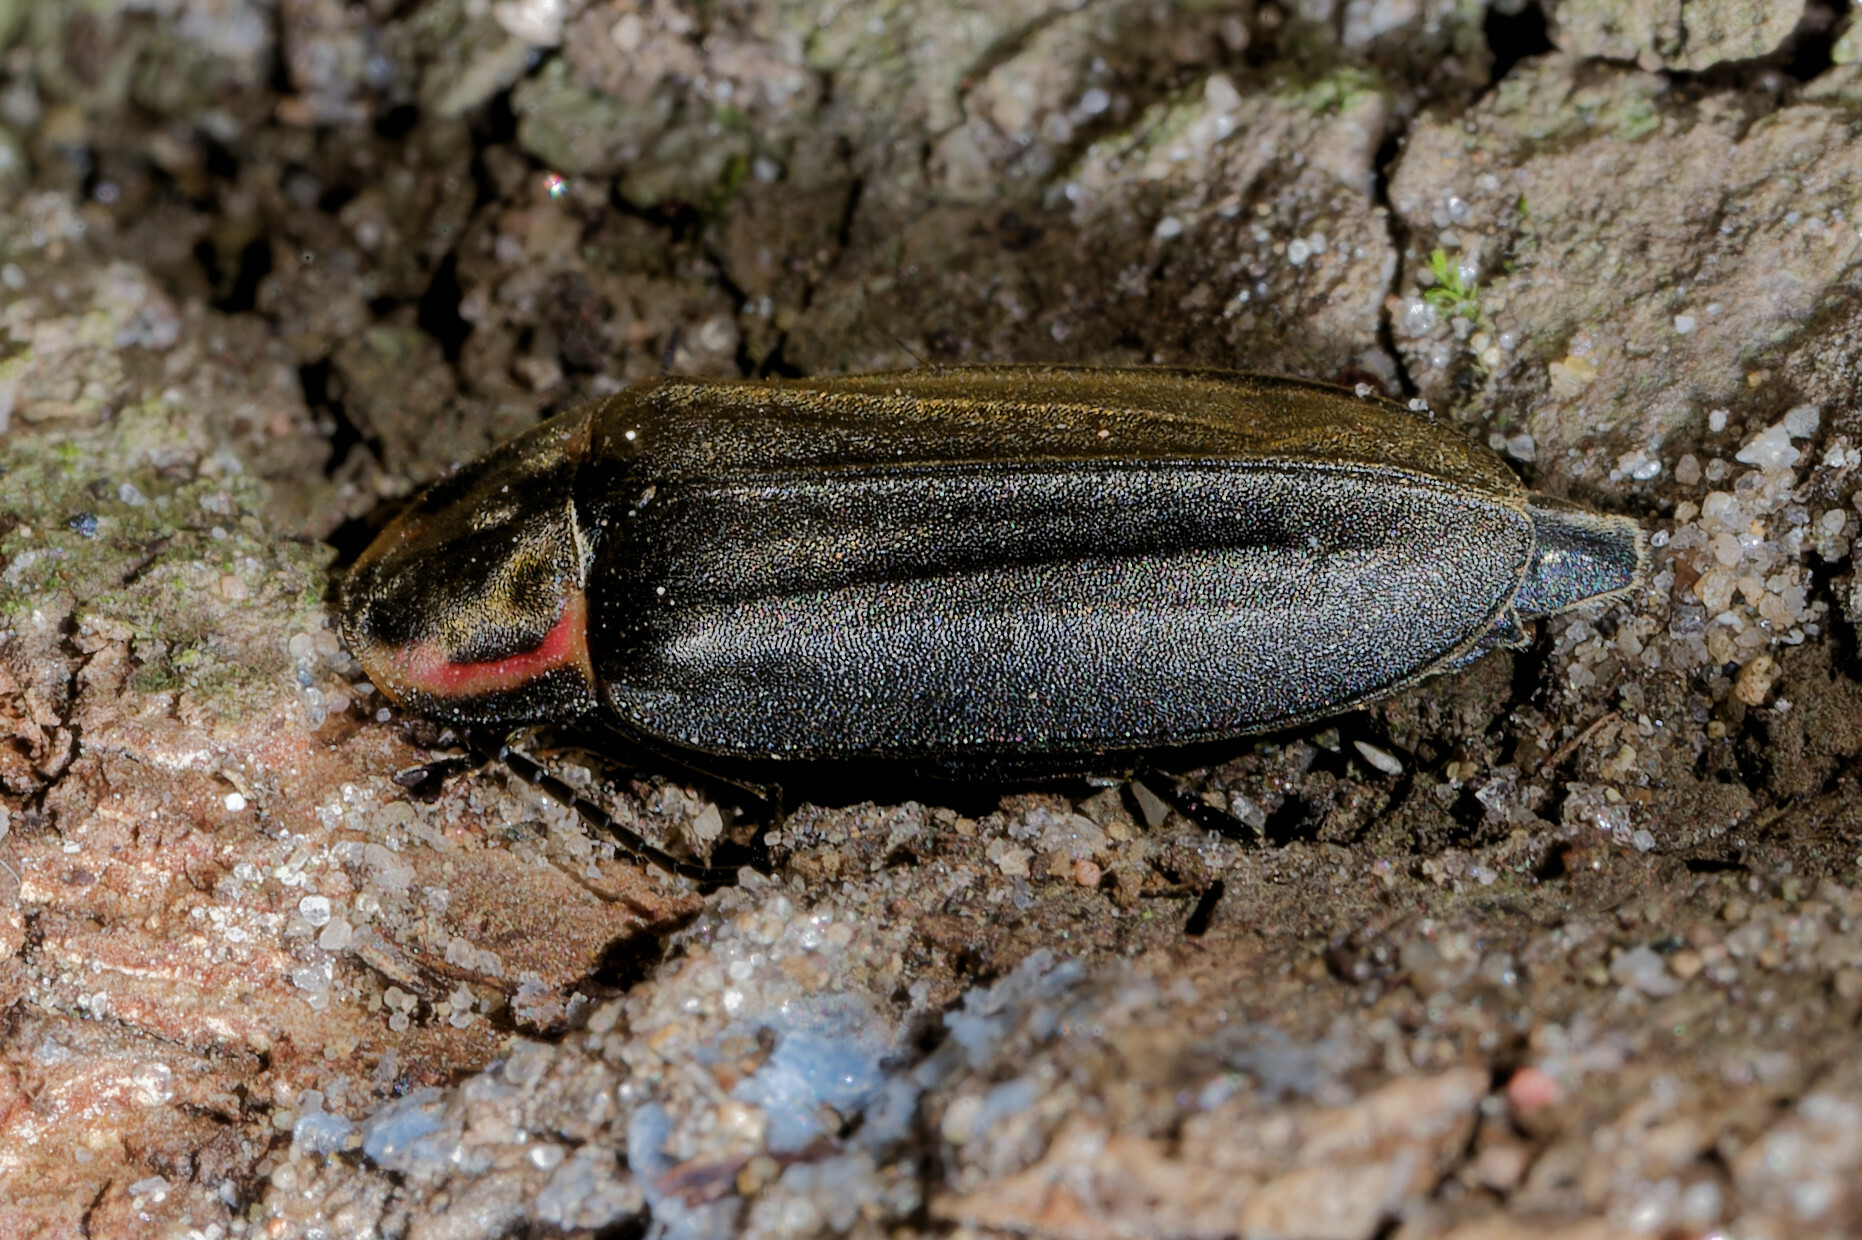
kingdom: Animalia
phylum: Arthropoda
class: Insecta
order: Coleoptera
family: Lampyridae
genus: Photinus
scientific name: Photinus corrusca
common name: Winter firefly
